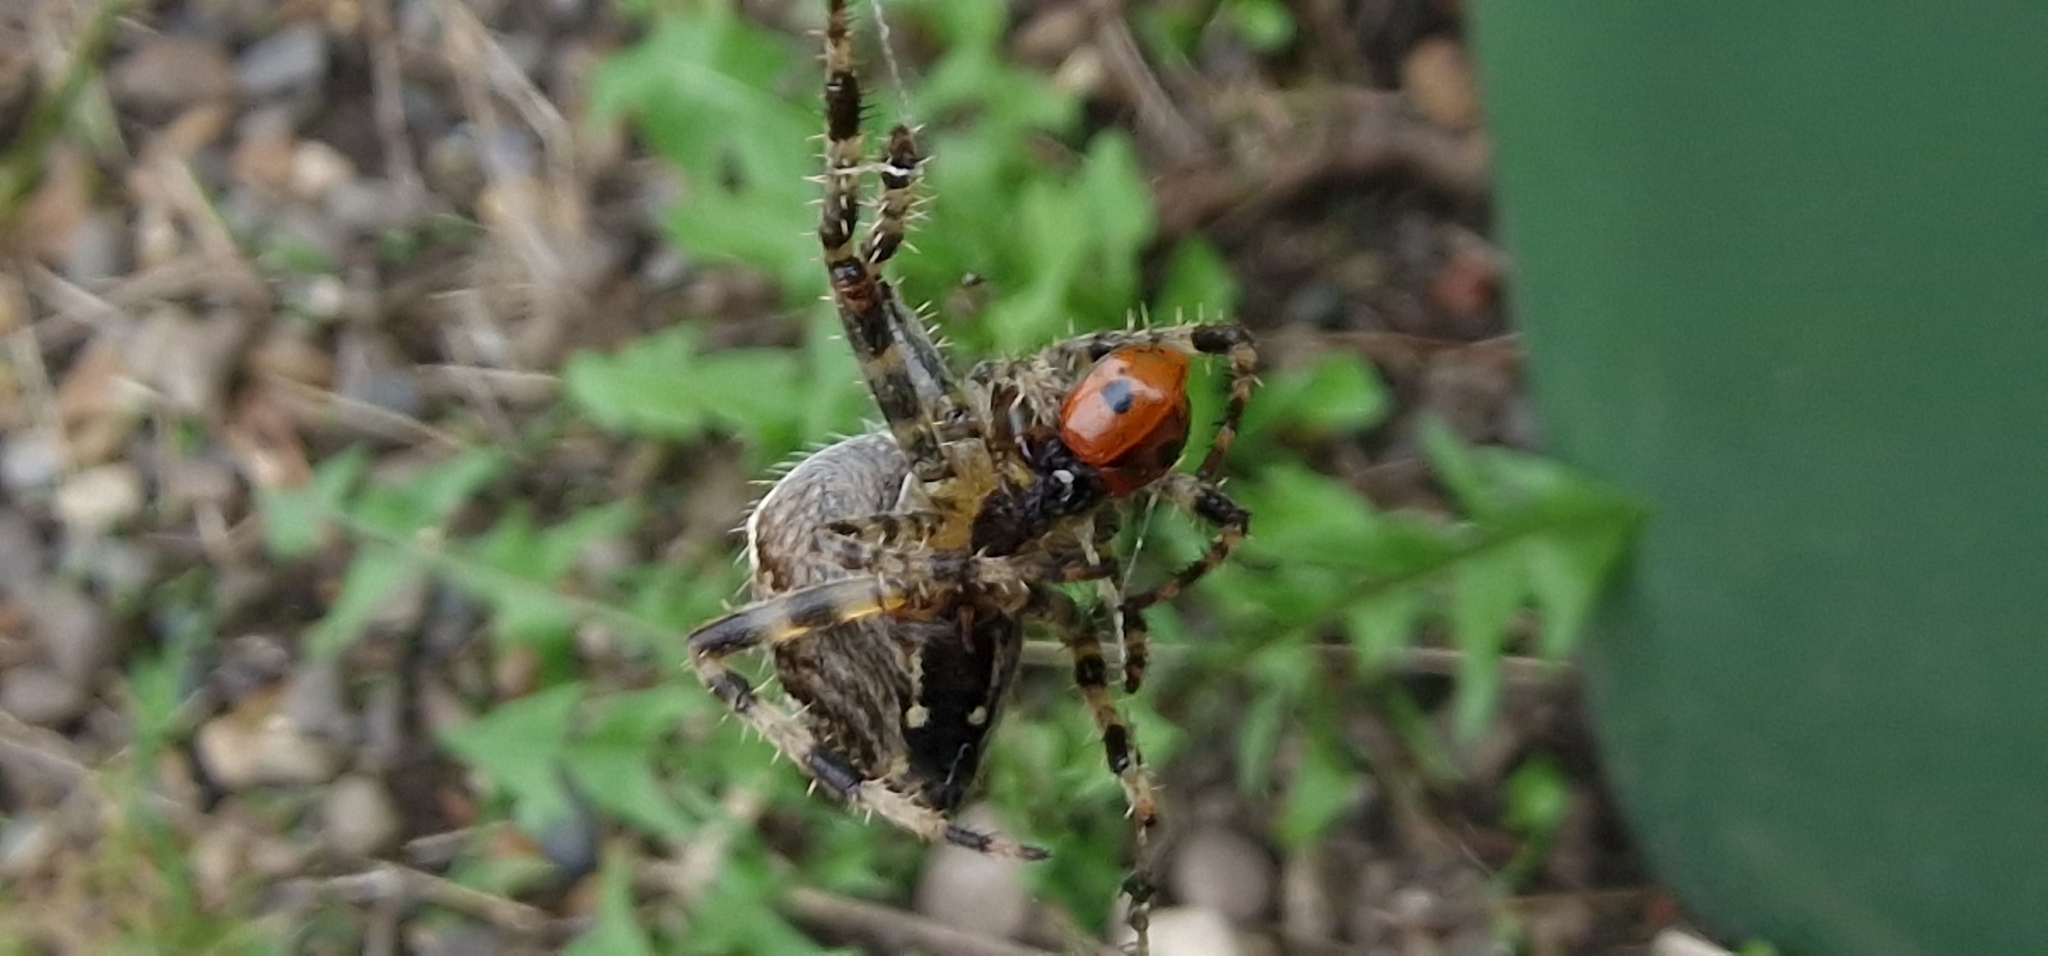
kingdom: Animalia
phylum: Arthropoda
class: Insecta
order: Coleoptera
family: Coccinellidae
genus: Adalia
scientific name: Adalia bipunctata
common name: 2-spot ladybird
